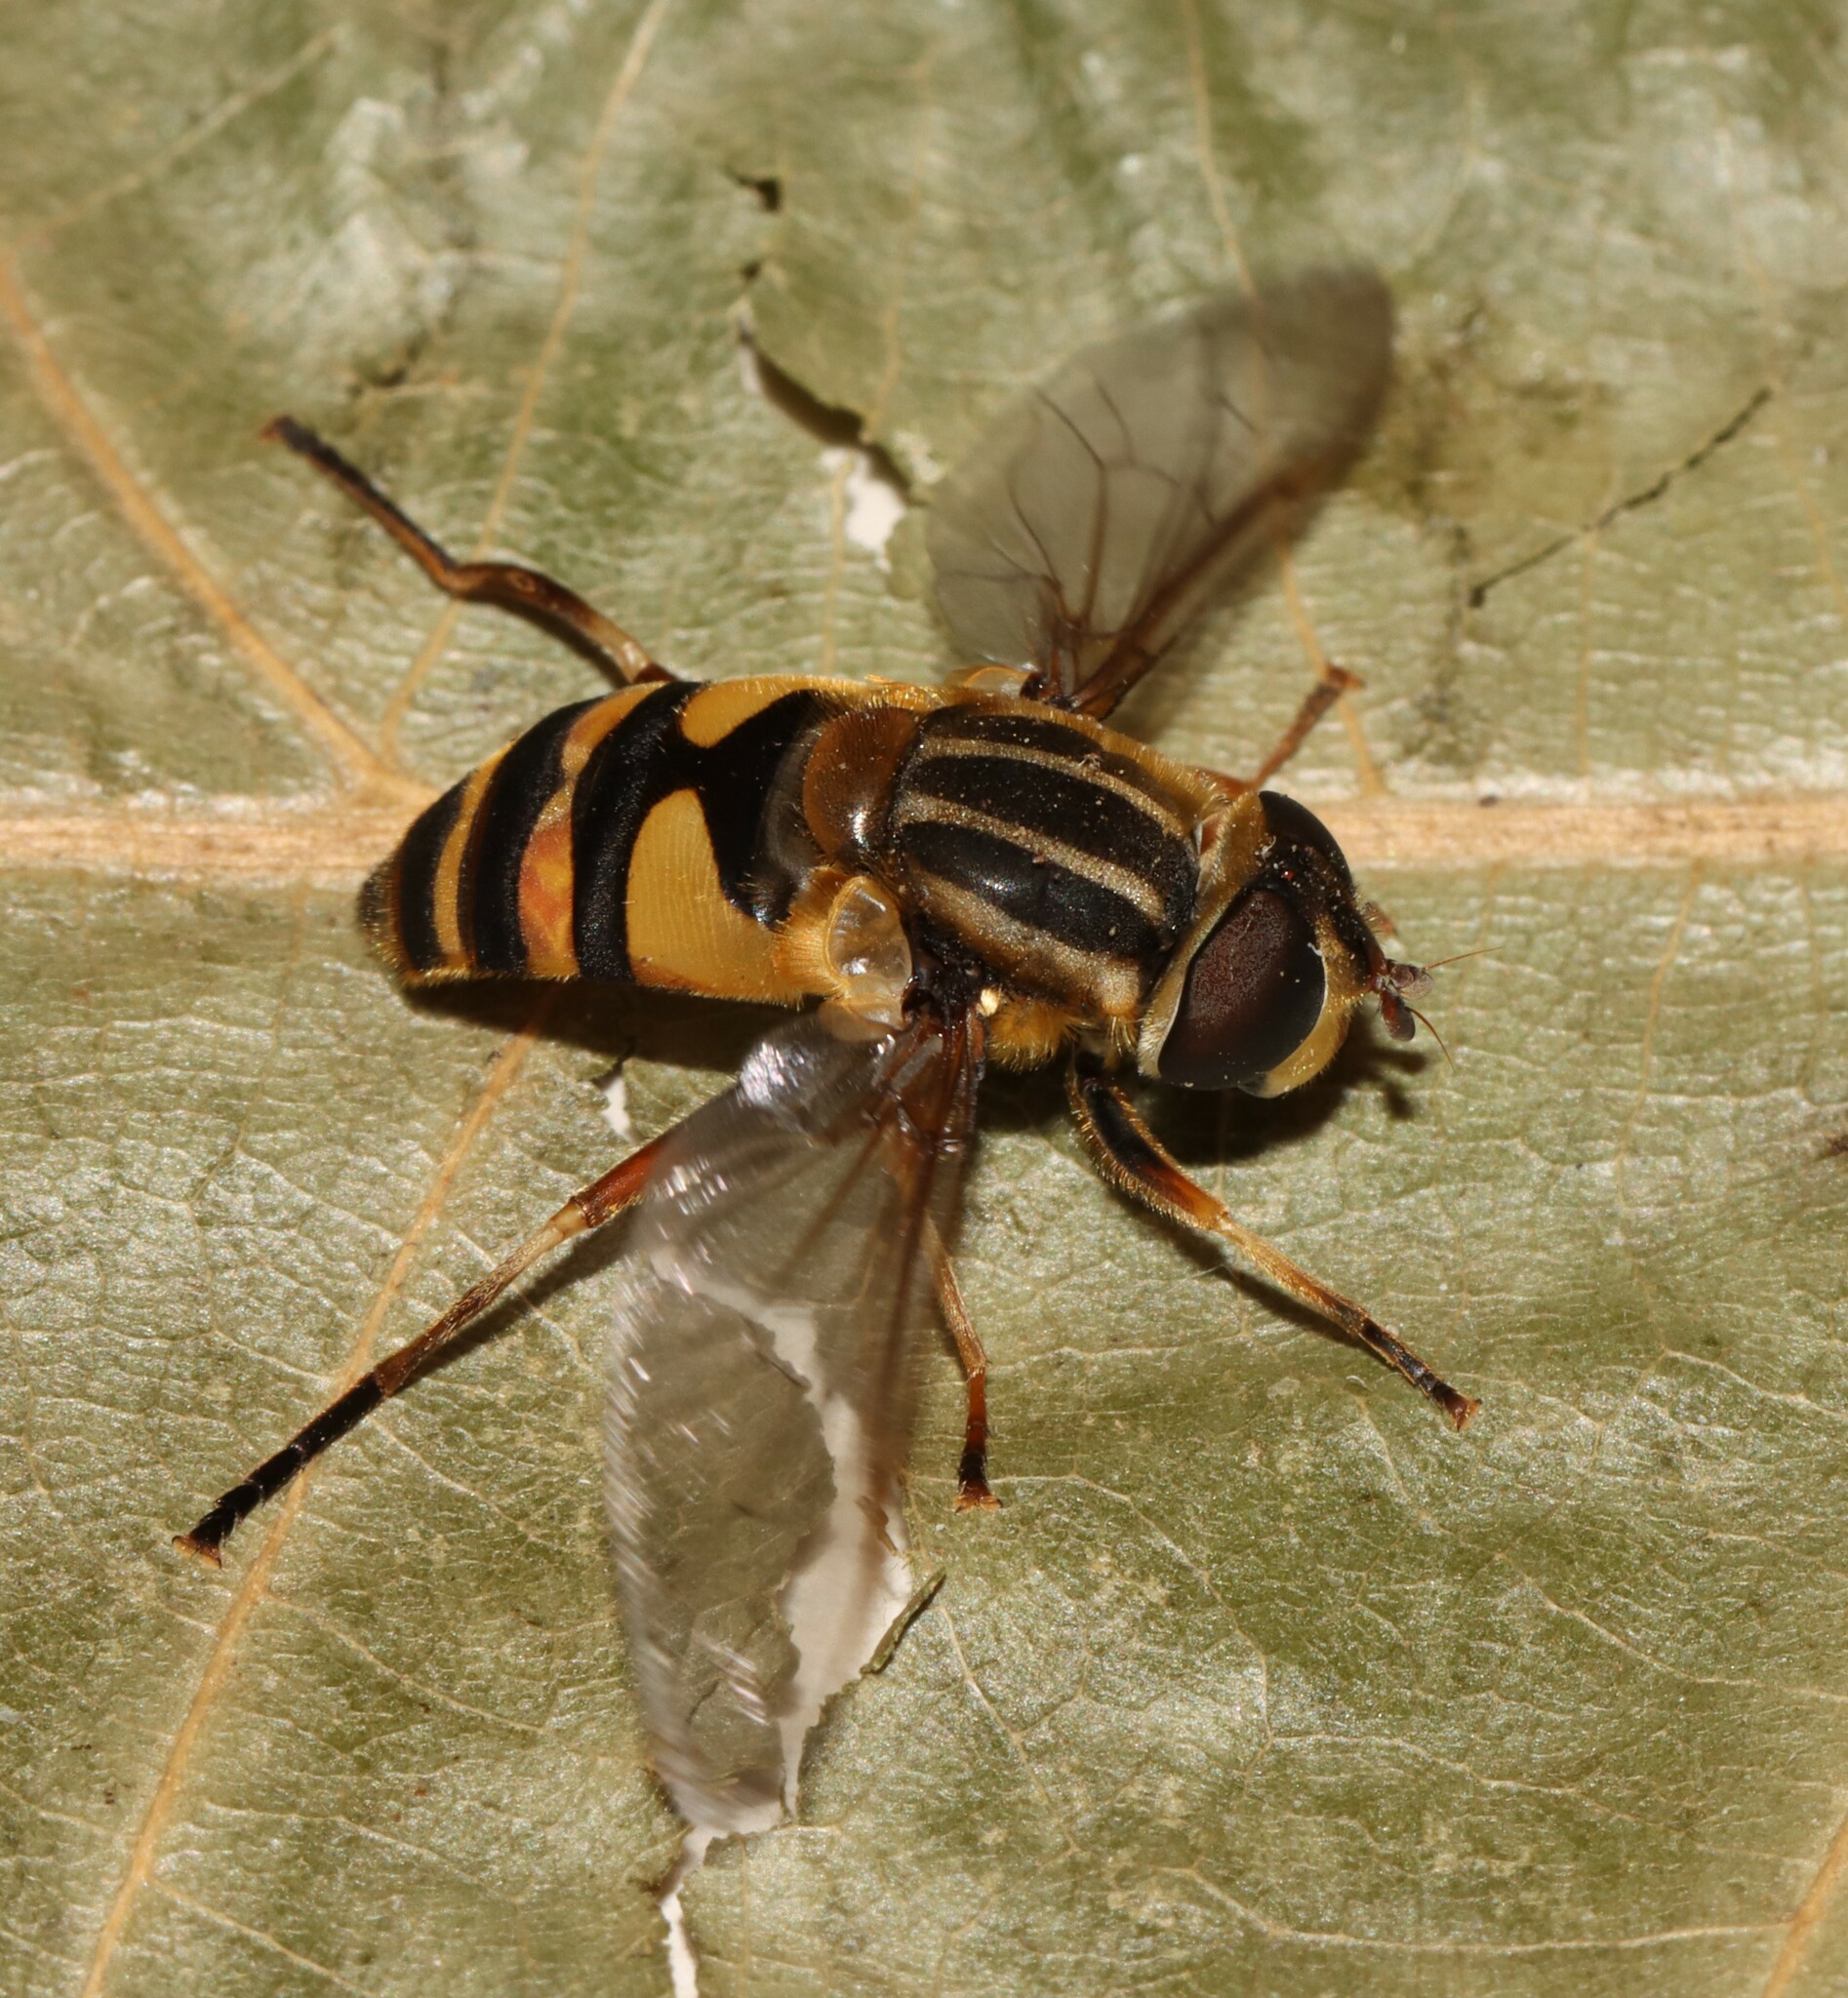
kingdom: Animalia
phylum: Arthropoda
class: Insecta
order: Diptera
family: Syrphidae
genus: Helophilus
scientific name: Helophilus fasciatus
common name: Narrow-headed marsh fly
